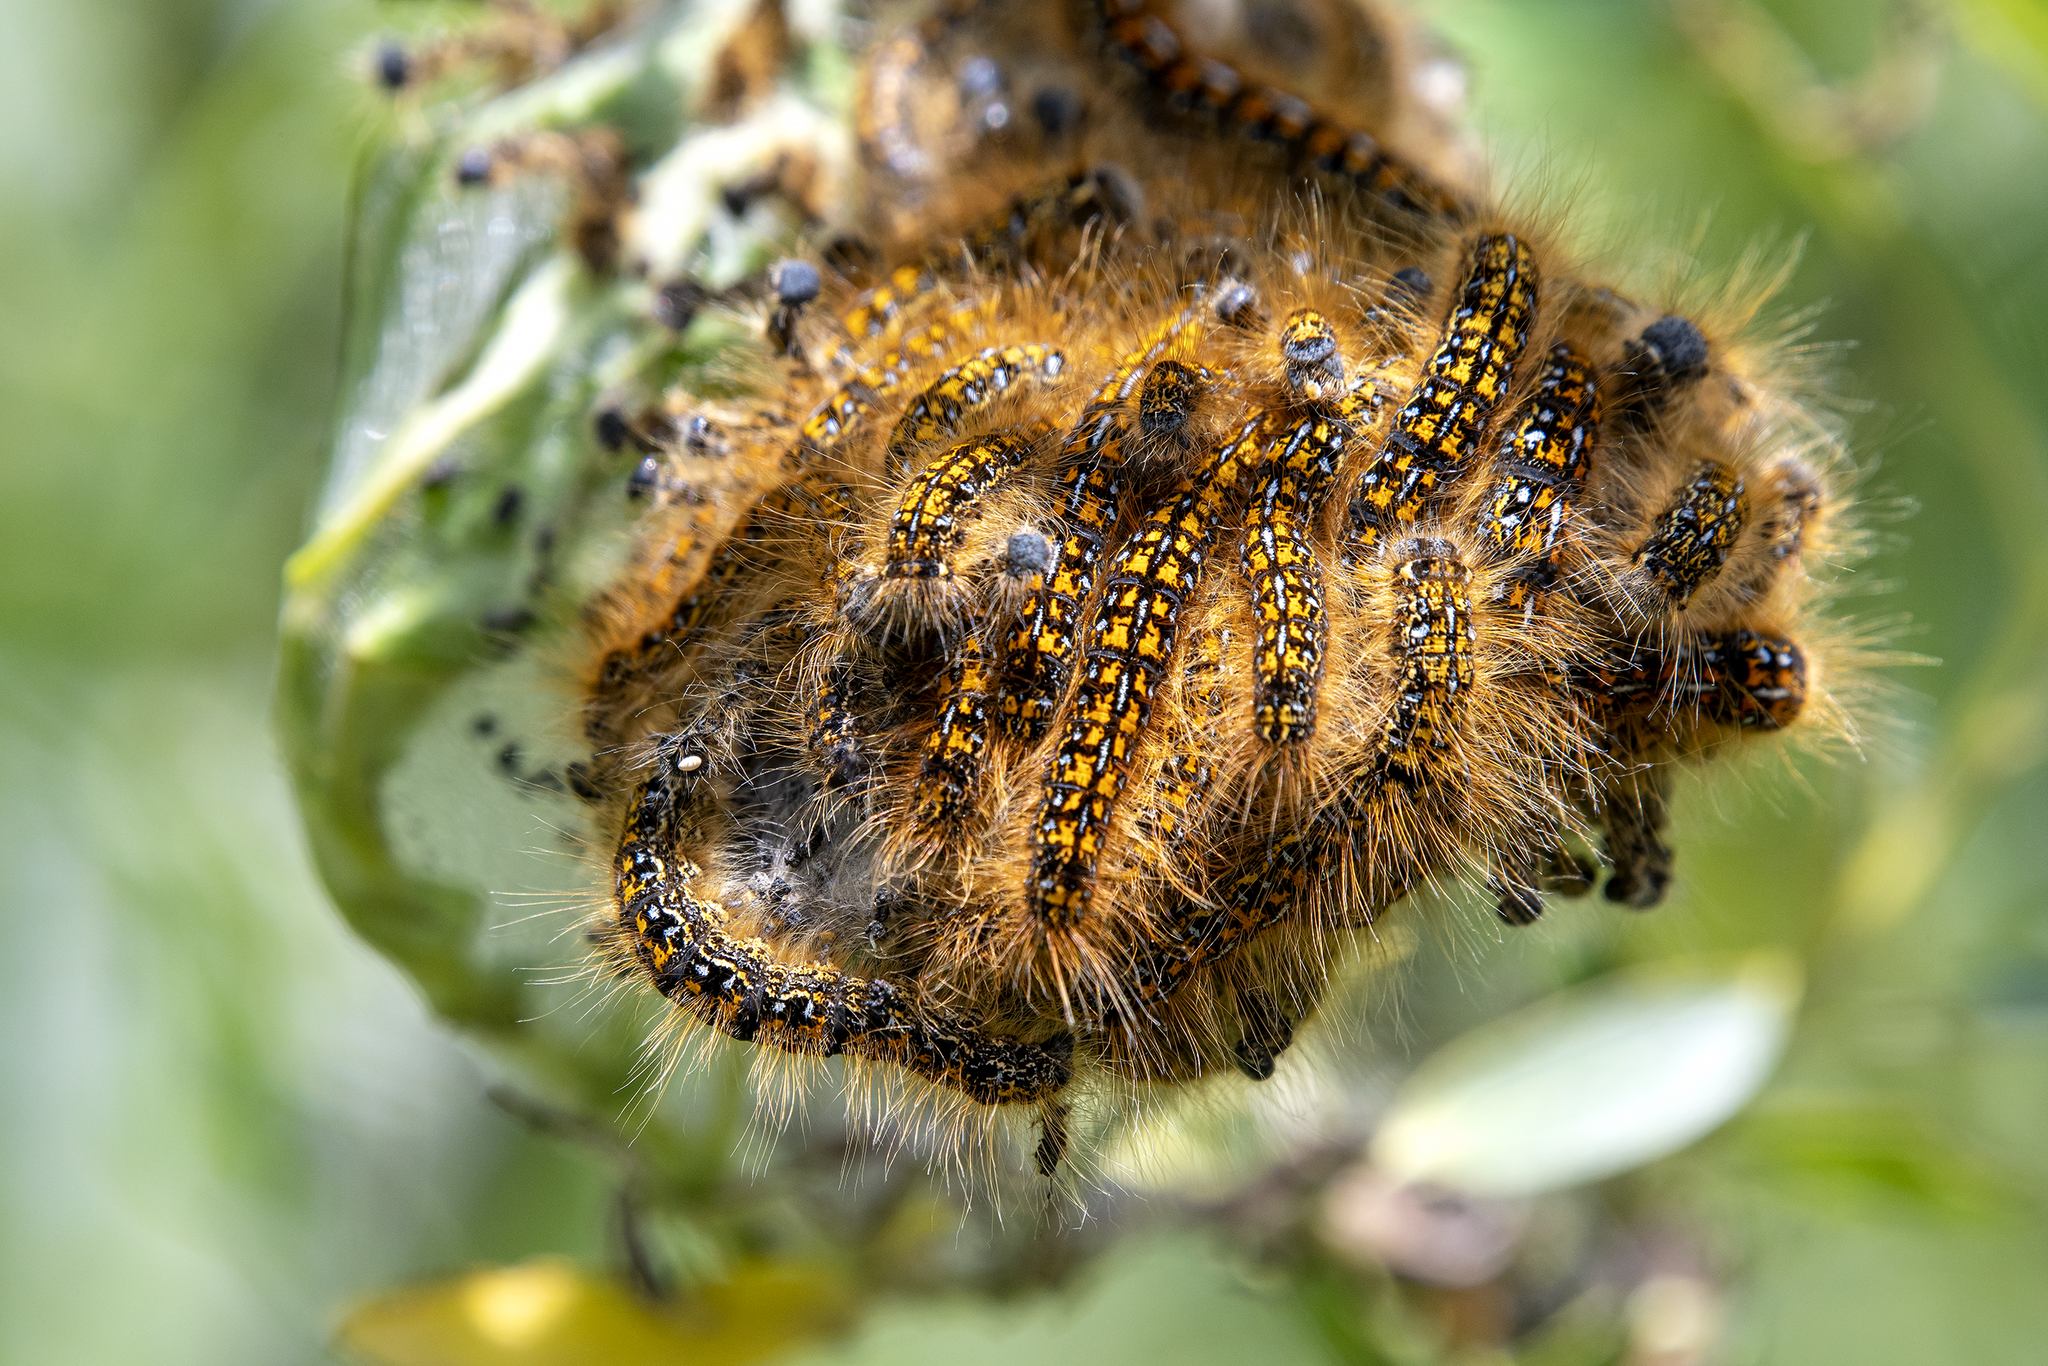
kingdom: Animalia
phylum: Arthropoda
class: Insecta
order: Lepidoptera
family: Lasiocampidae
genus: Malacosoma
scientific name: Malacosoma californica
